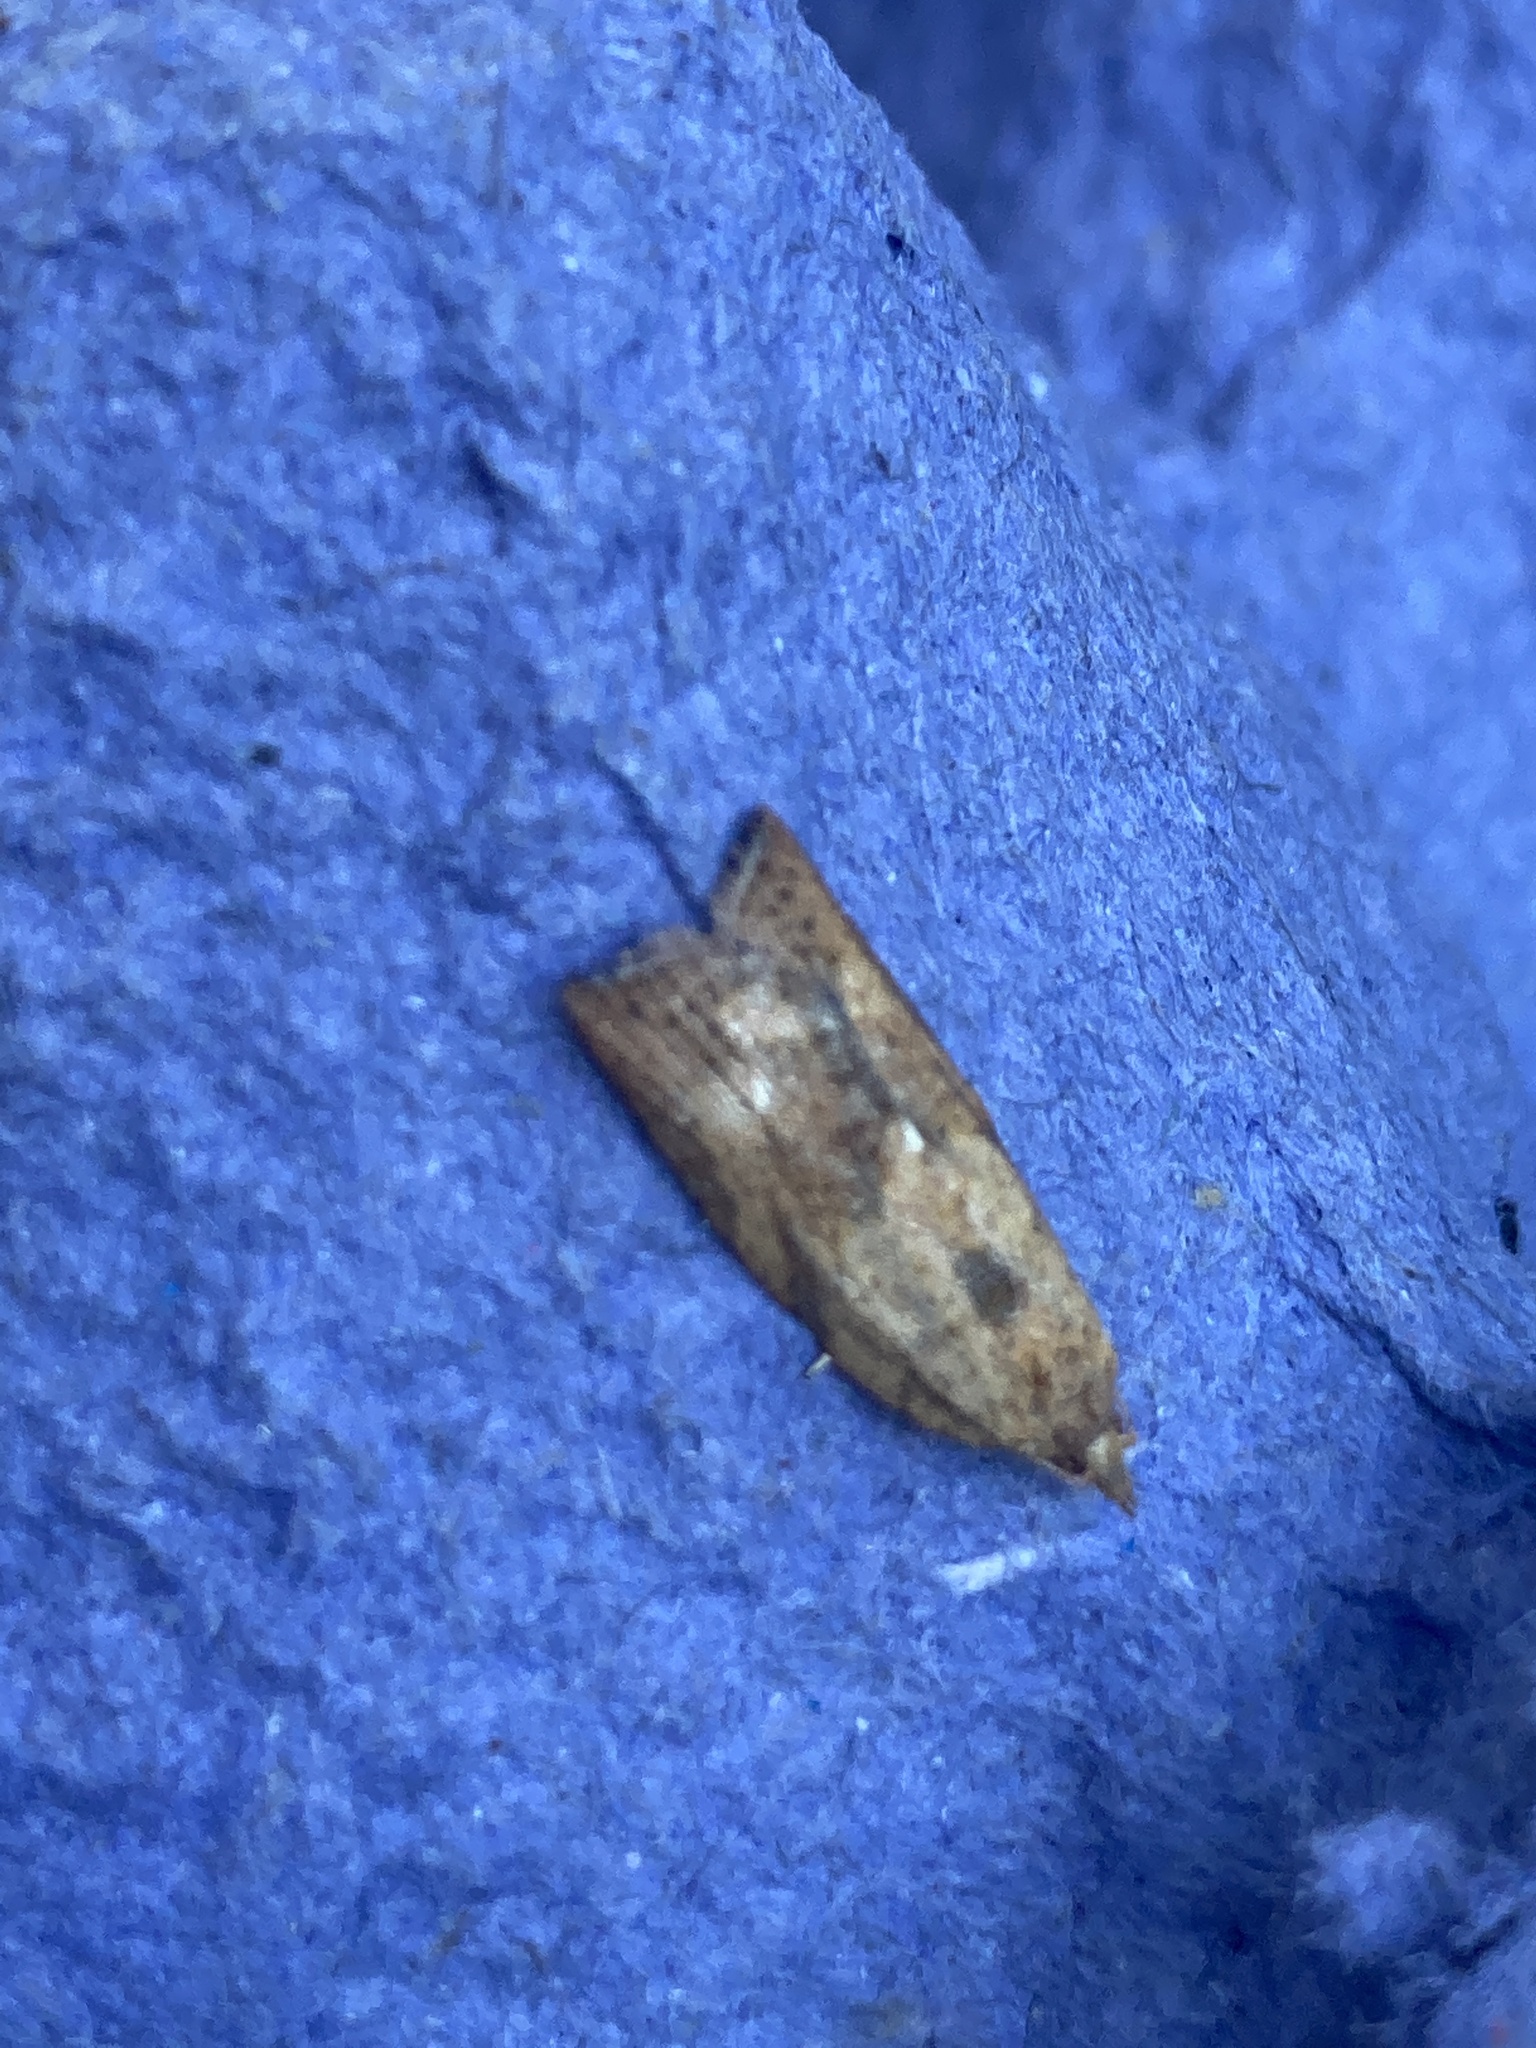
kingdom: Animalia
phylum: Arthropoda
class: Insecta
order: Lepidoptera
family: Tortricidae
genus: Epiphyas
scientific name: Epiphyas postvittana
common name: Light brown apple moth
